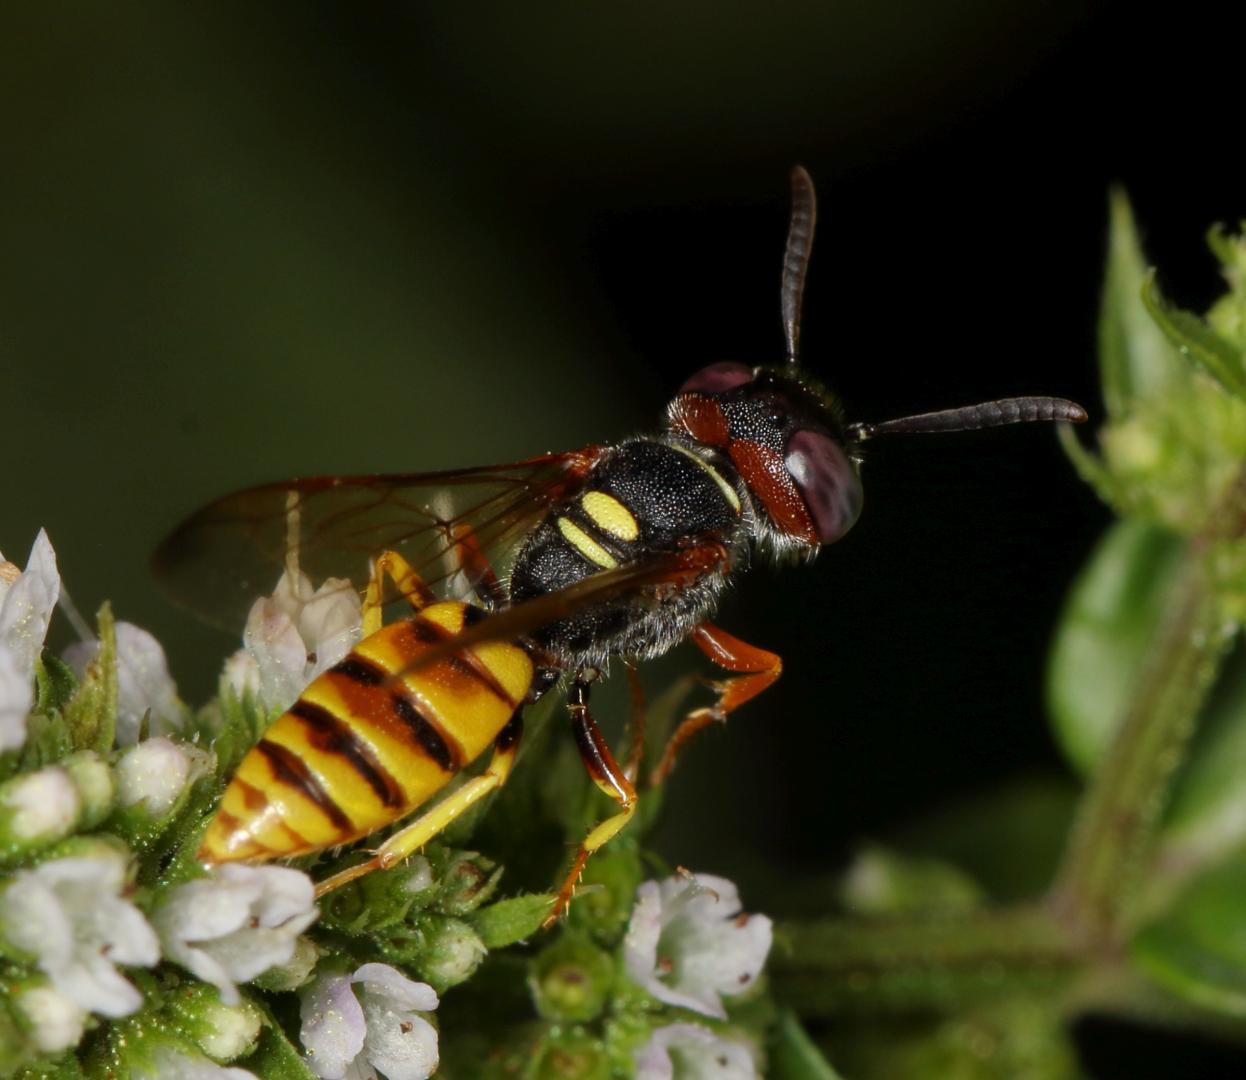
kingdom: Animalia
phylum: Arthropoda
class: Insecta
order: Hymenoptera
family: Crabronidae
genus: Philanthus
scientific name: Philanthus triangulum
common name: Bee wolf
